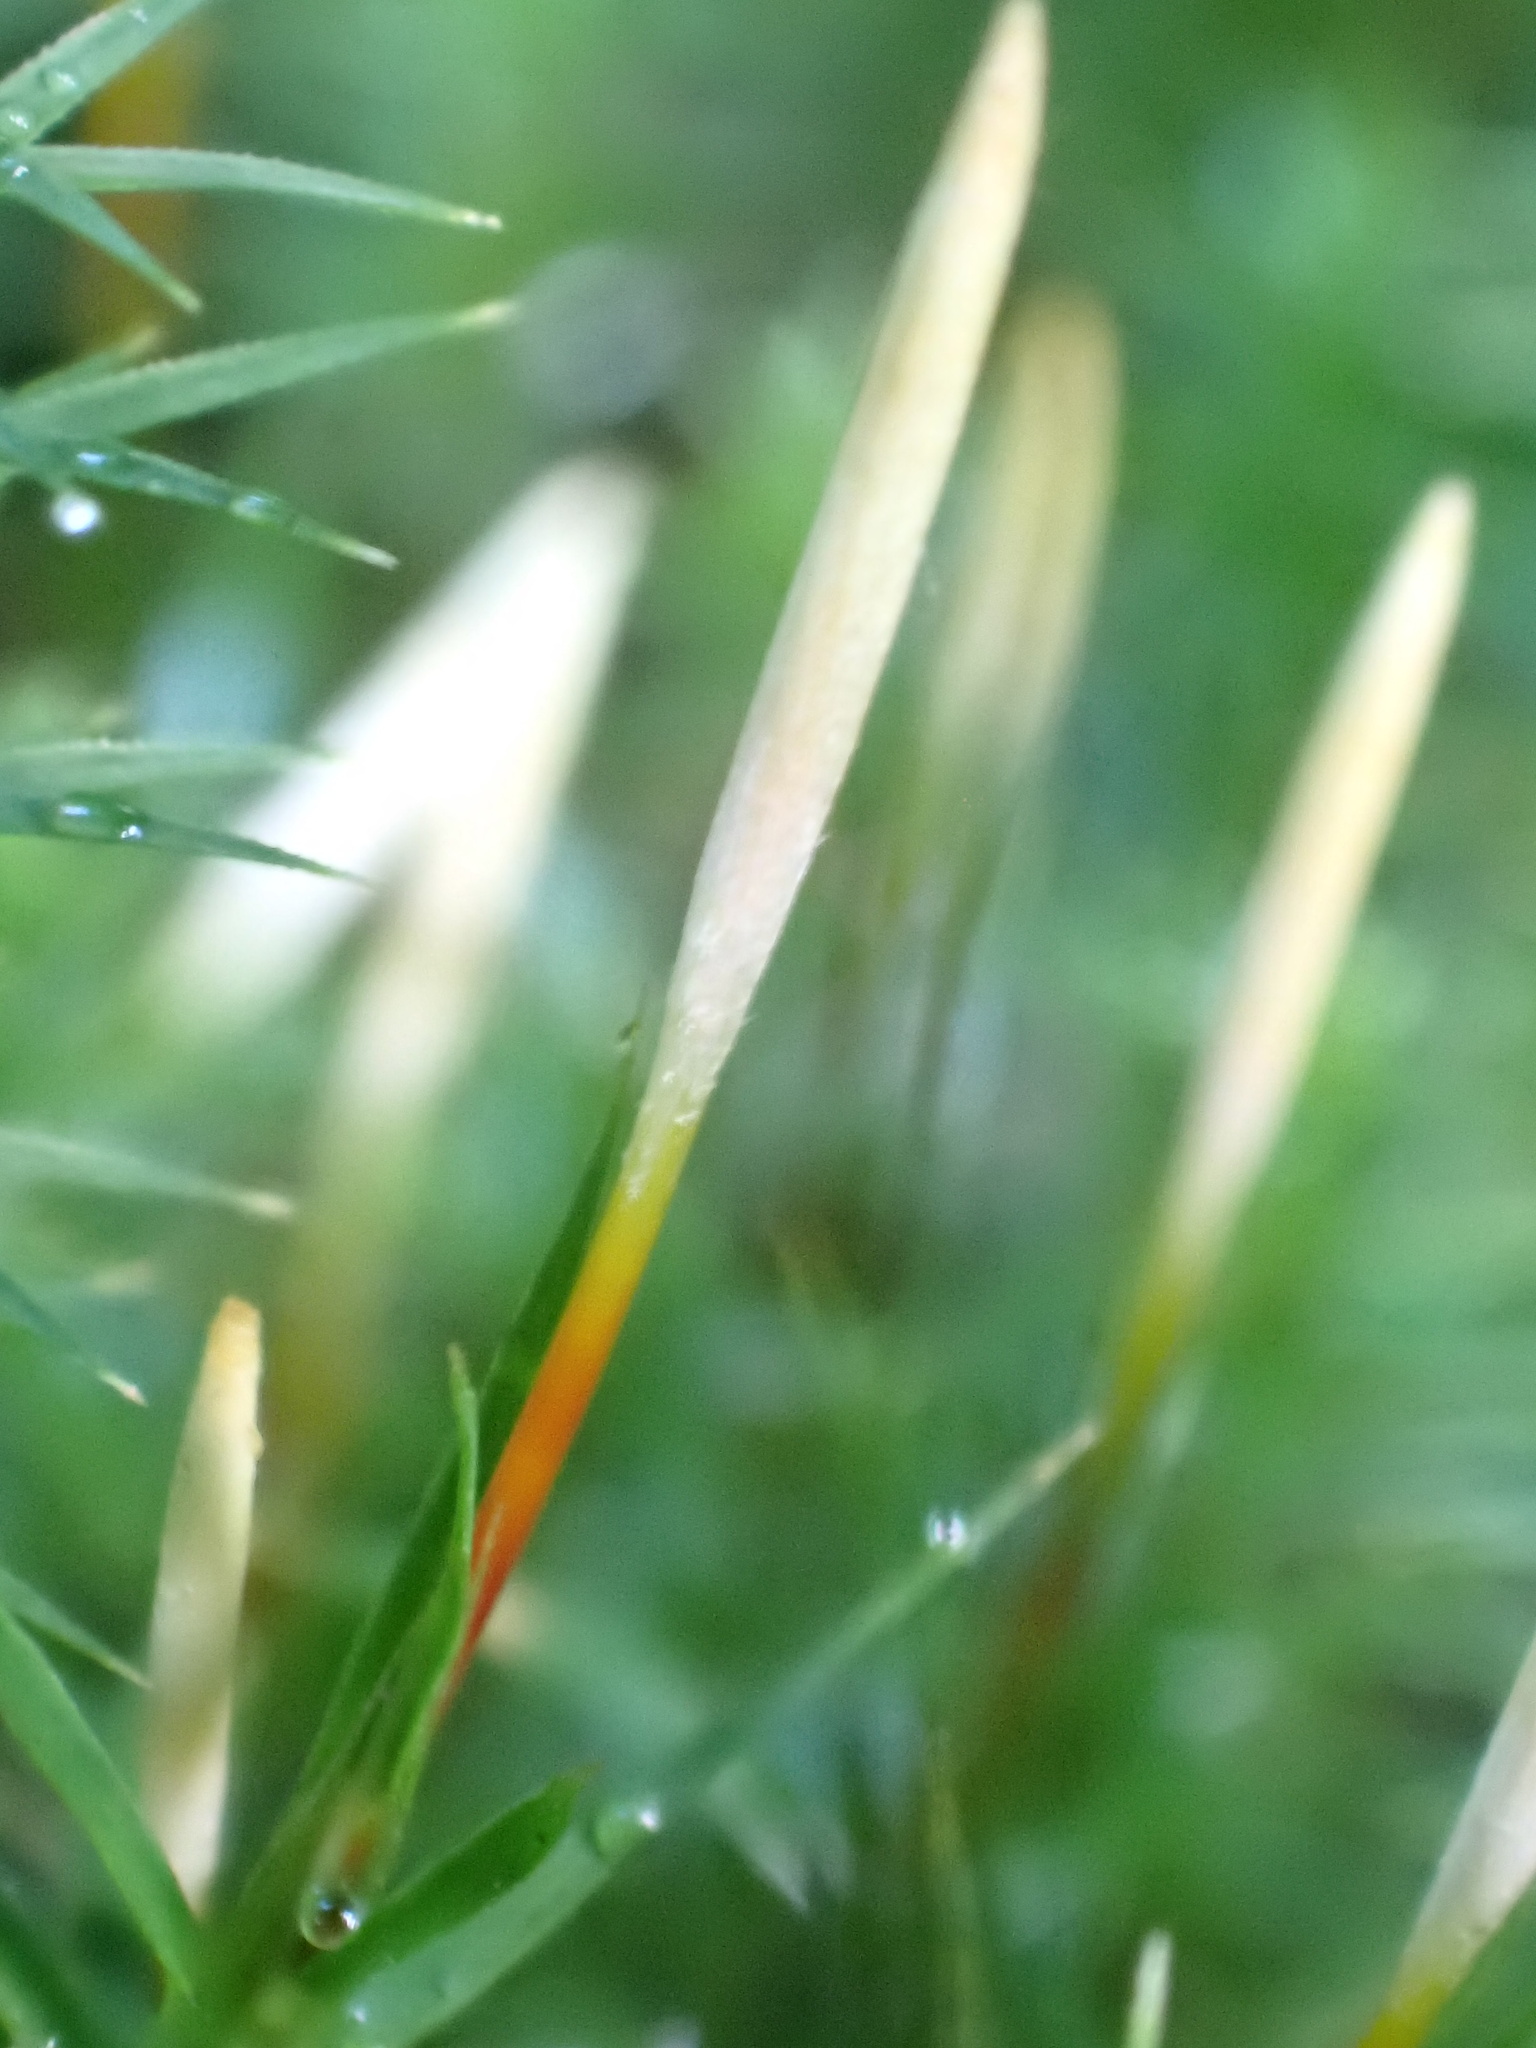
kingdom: Plantae
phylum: Bryophyta
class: Polytrichopsida
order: Polytrichales
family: Polytrichaceae
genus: Polytrichum
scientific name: Polytrichum formosum
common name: Bank haircap moss
